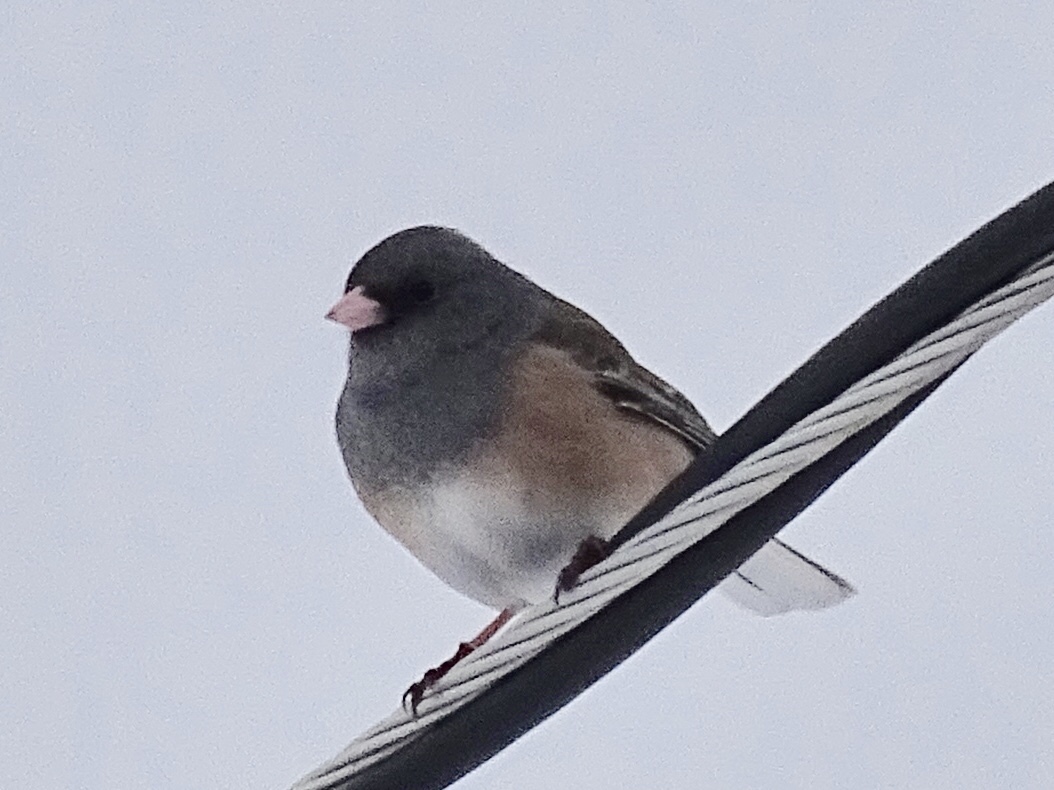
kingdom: Animalia
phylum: Chordata
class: Aves
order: Passeriformes
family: Passerellidae
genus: Junco
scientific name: Junco hyemalis
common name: Dark-eyed junco
